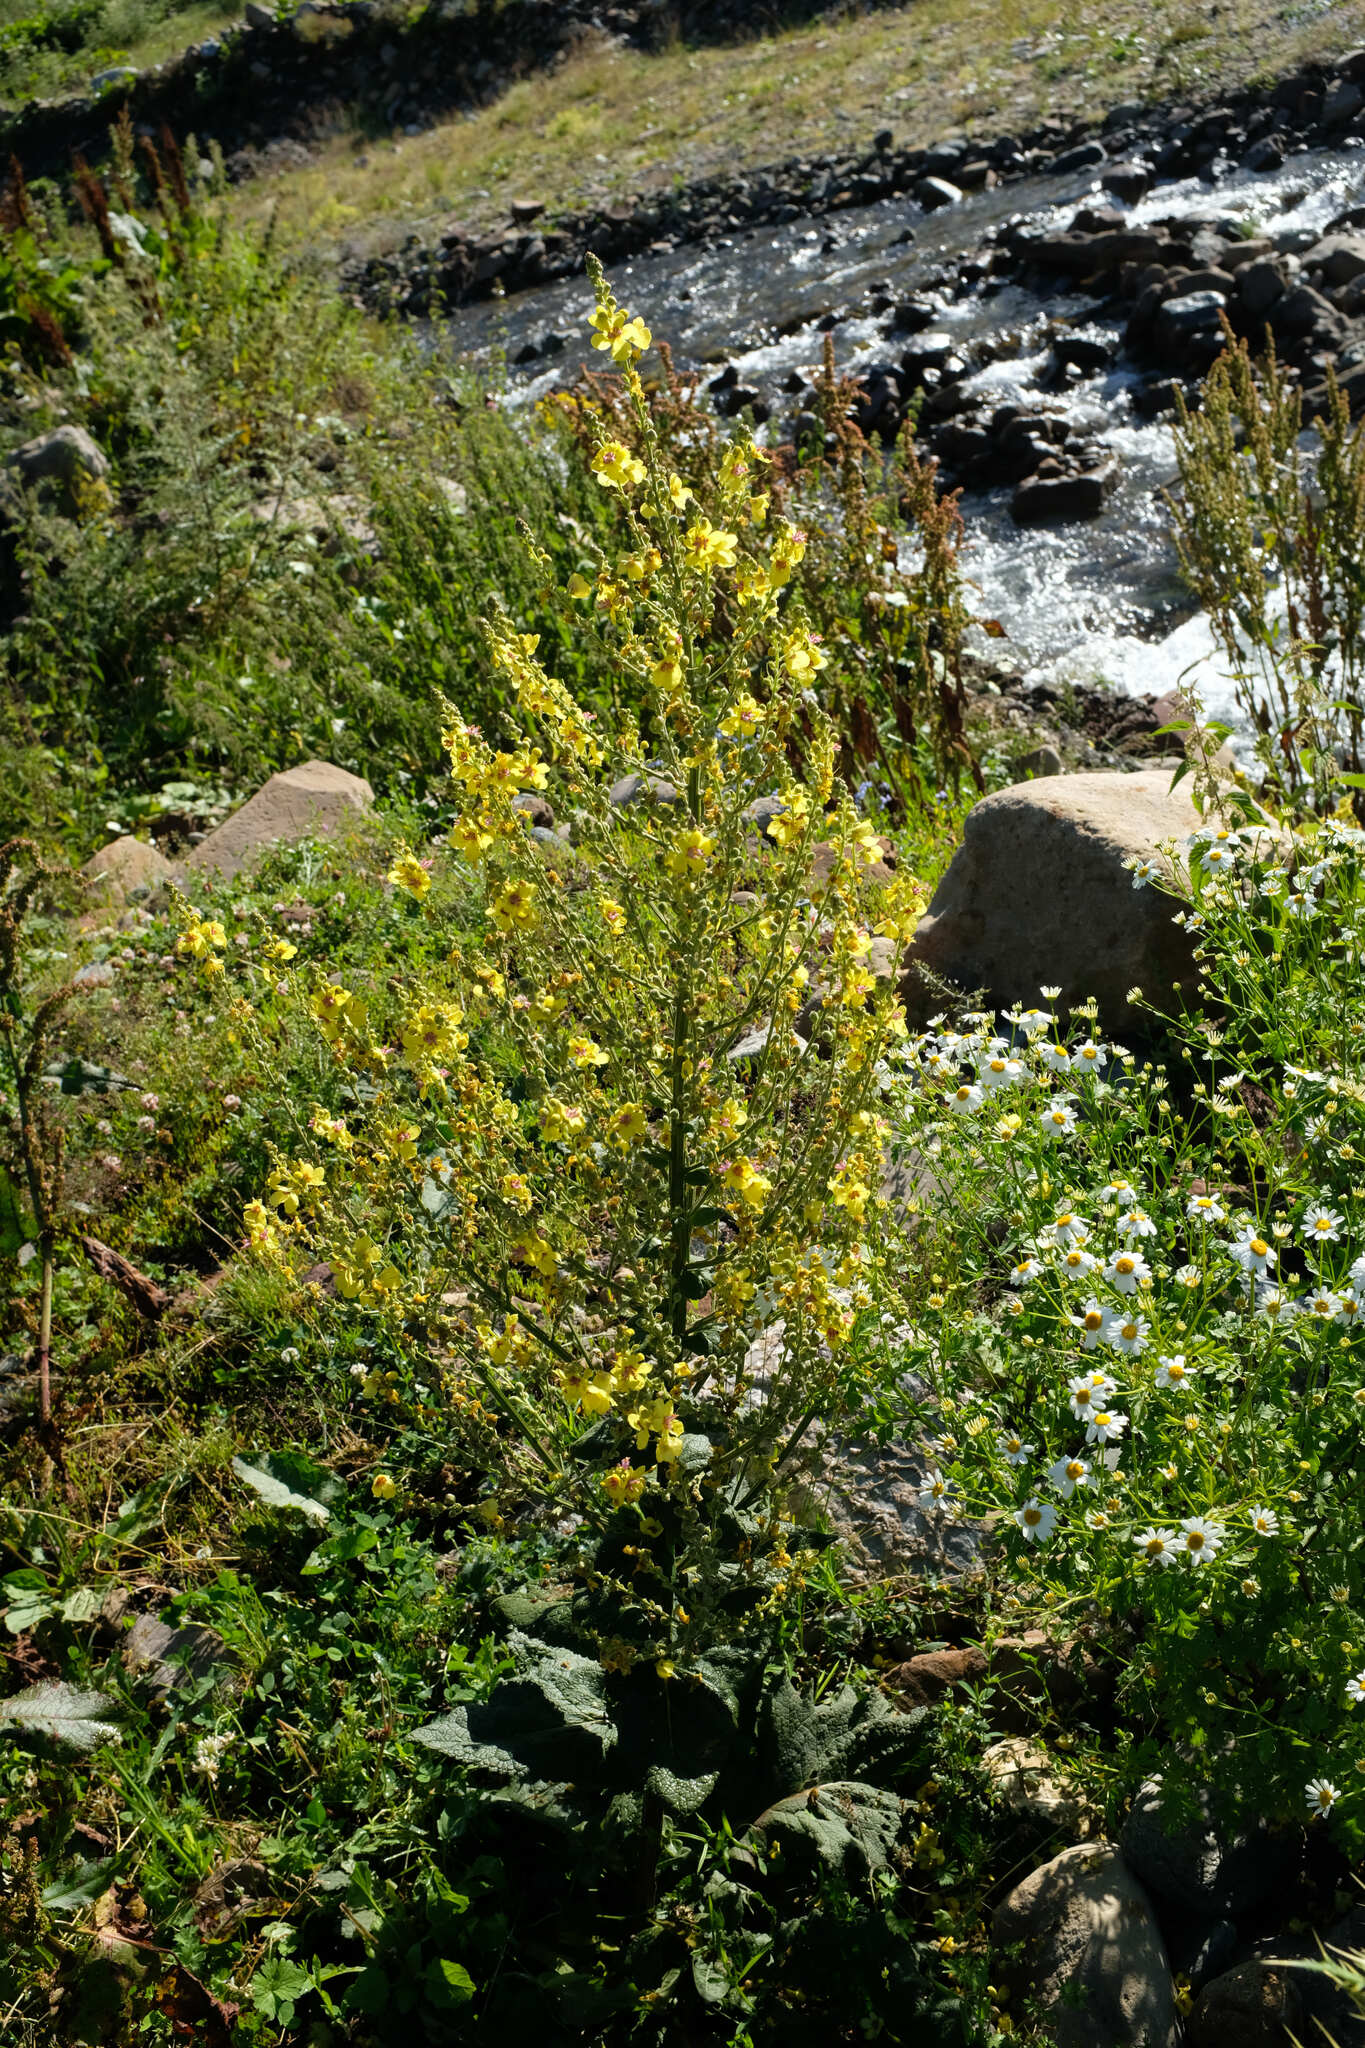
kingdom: Plantae
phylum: Tracheophyta
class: Magnoliopsida
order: Lamiales
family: Scrophulariaceae
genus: Verbascum
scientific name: Verbascum pyramidatum
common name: Caucasian mullein
